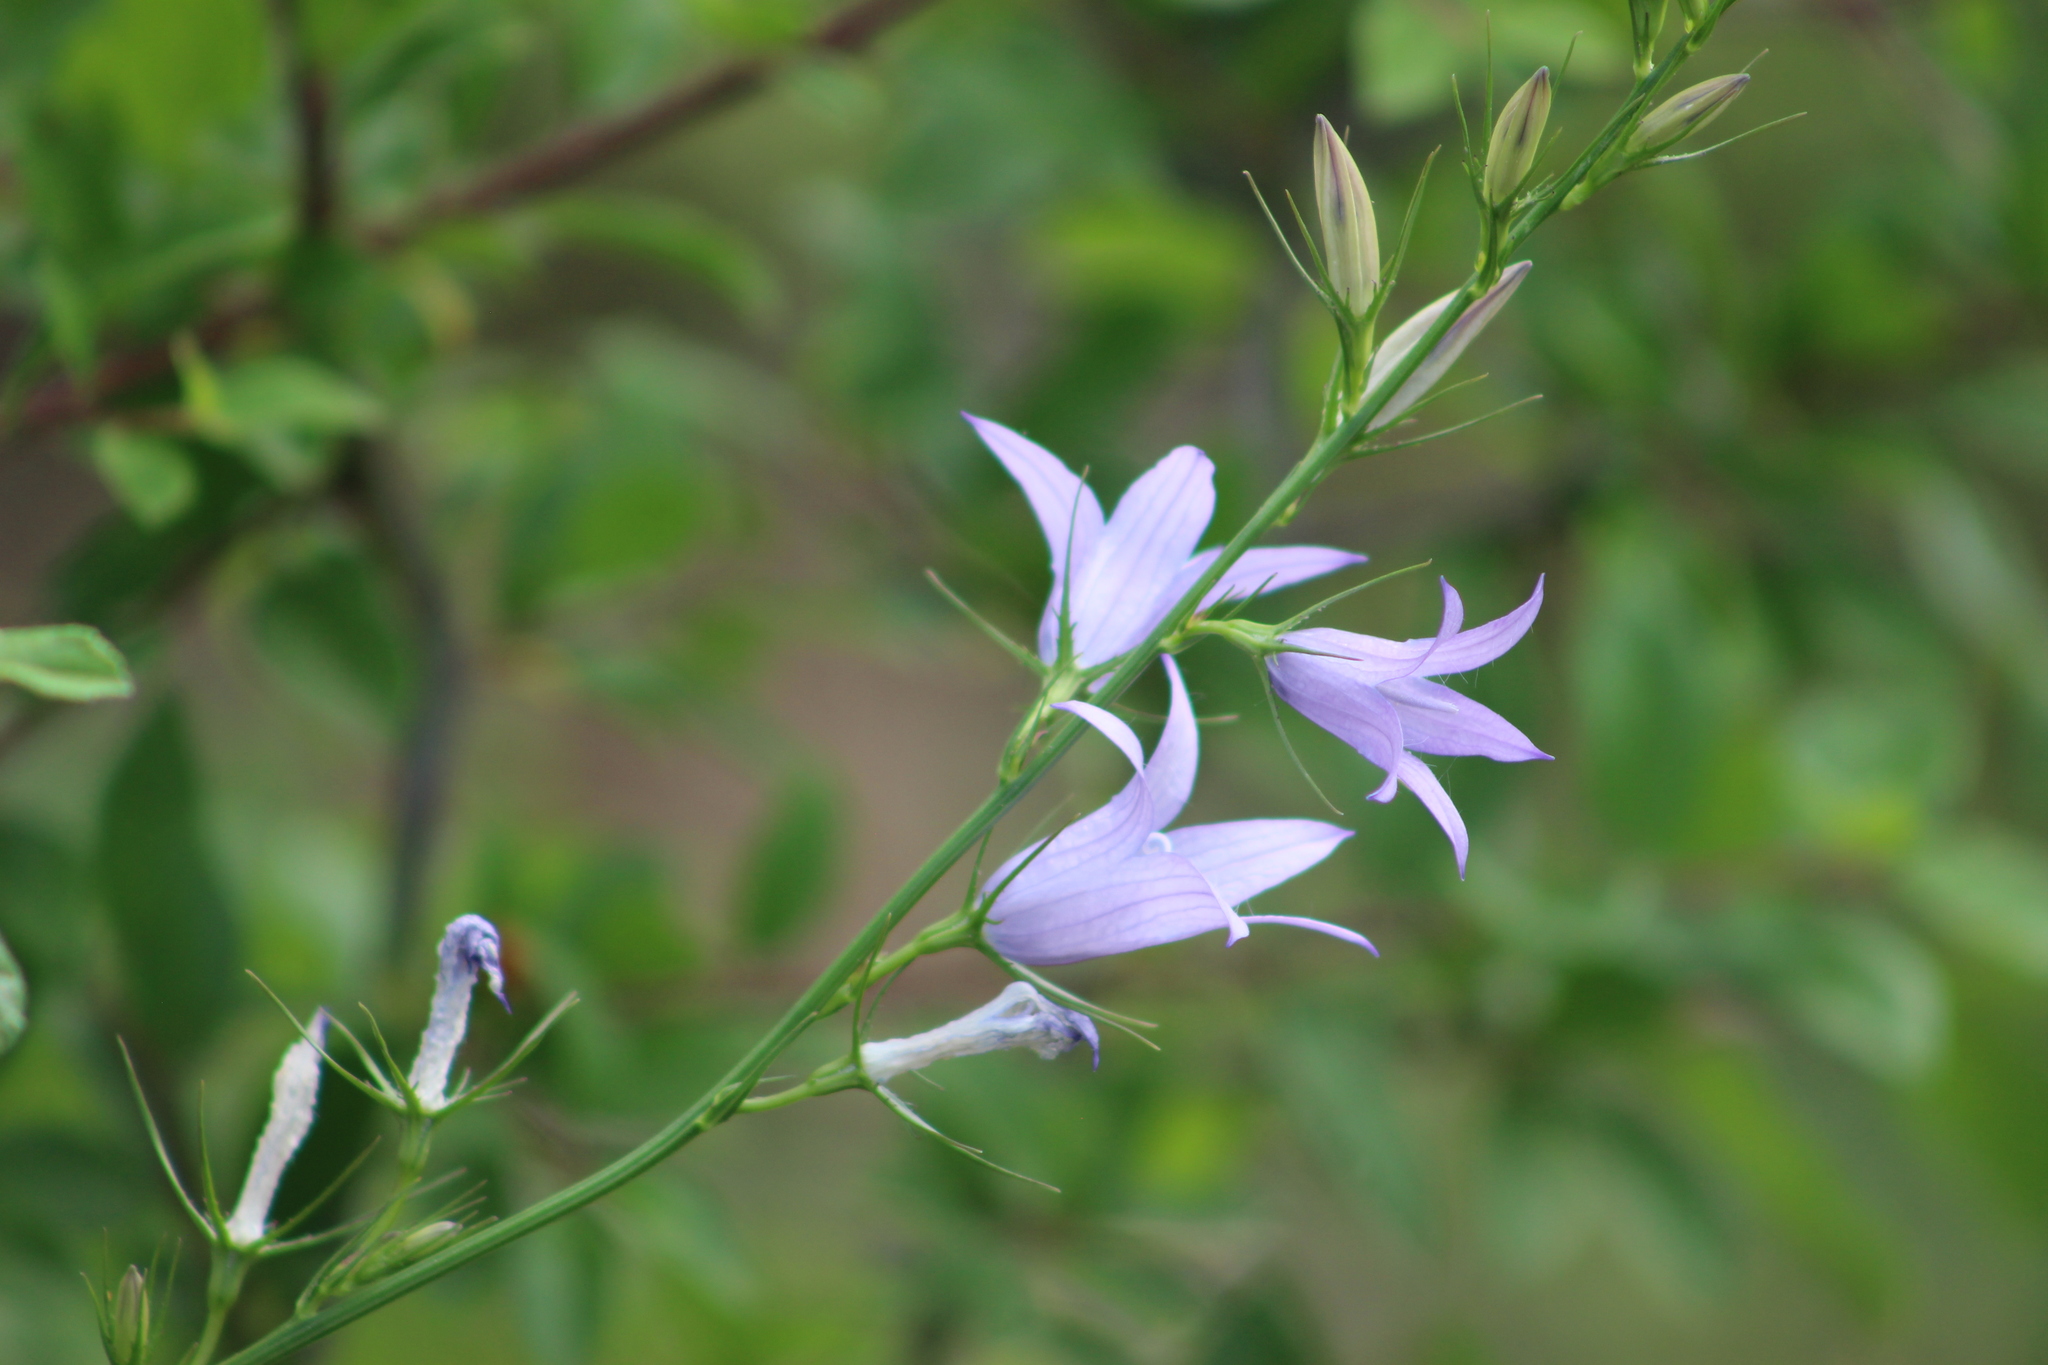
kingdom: Plantae
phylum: Tracheophyta
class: Magnoliopsida
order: Asterales
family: Campanulaceae
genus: Campanula
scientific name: Campanula rapunculus
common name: Rampion bellflower
